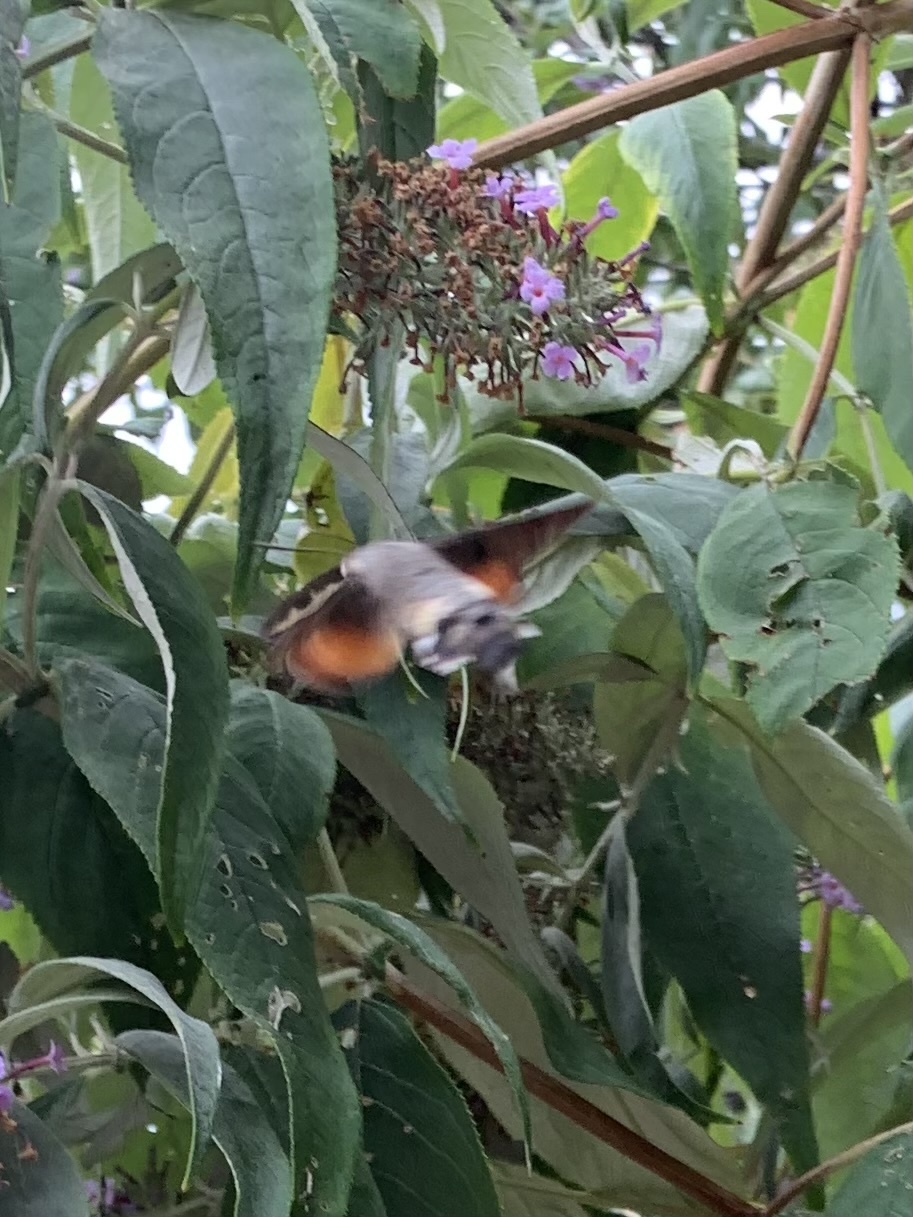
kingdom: Animalia
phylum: Arthropoda
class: Insecta
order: Lepidoptera
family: Sphingidae
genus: Macroglossum
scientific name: Macroglossum stellatarum
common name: Humming-bird hawk-moth
